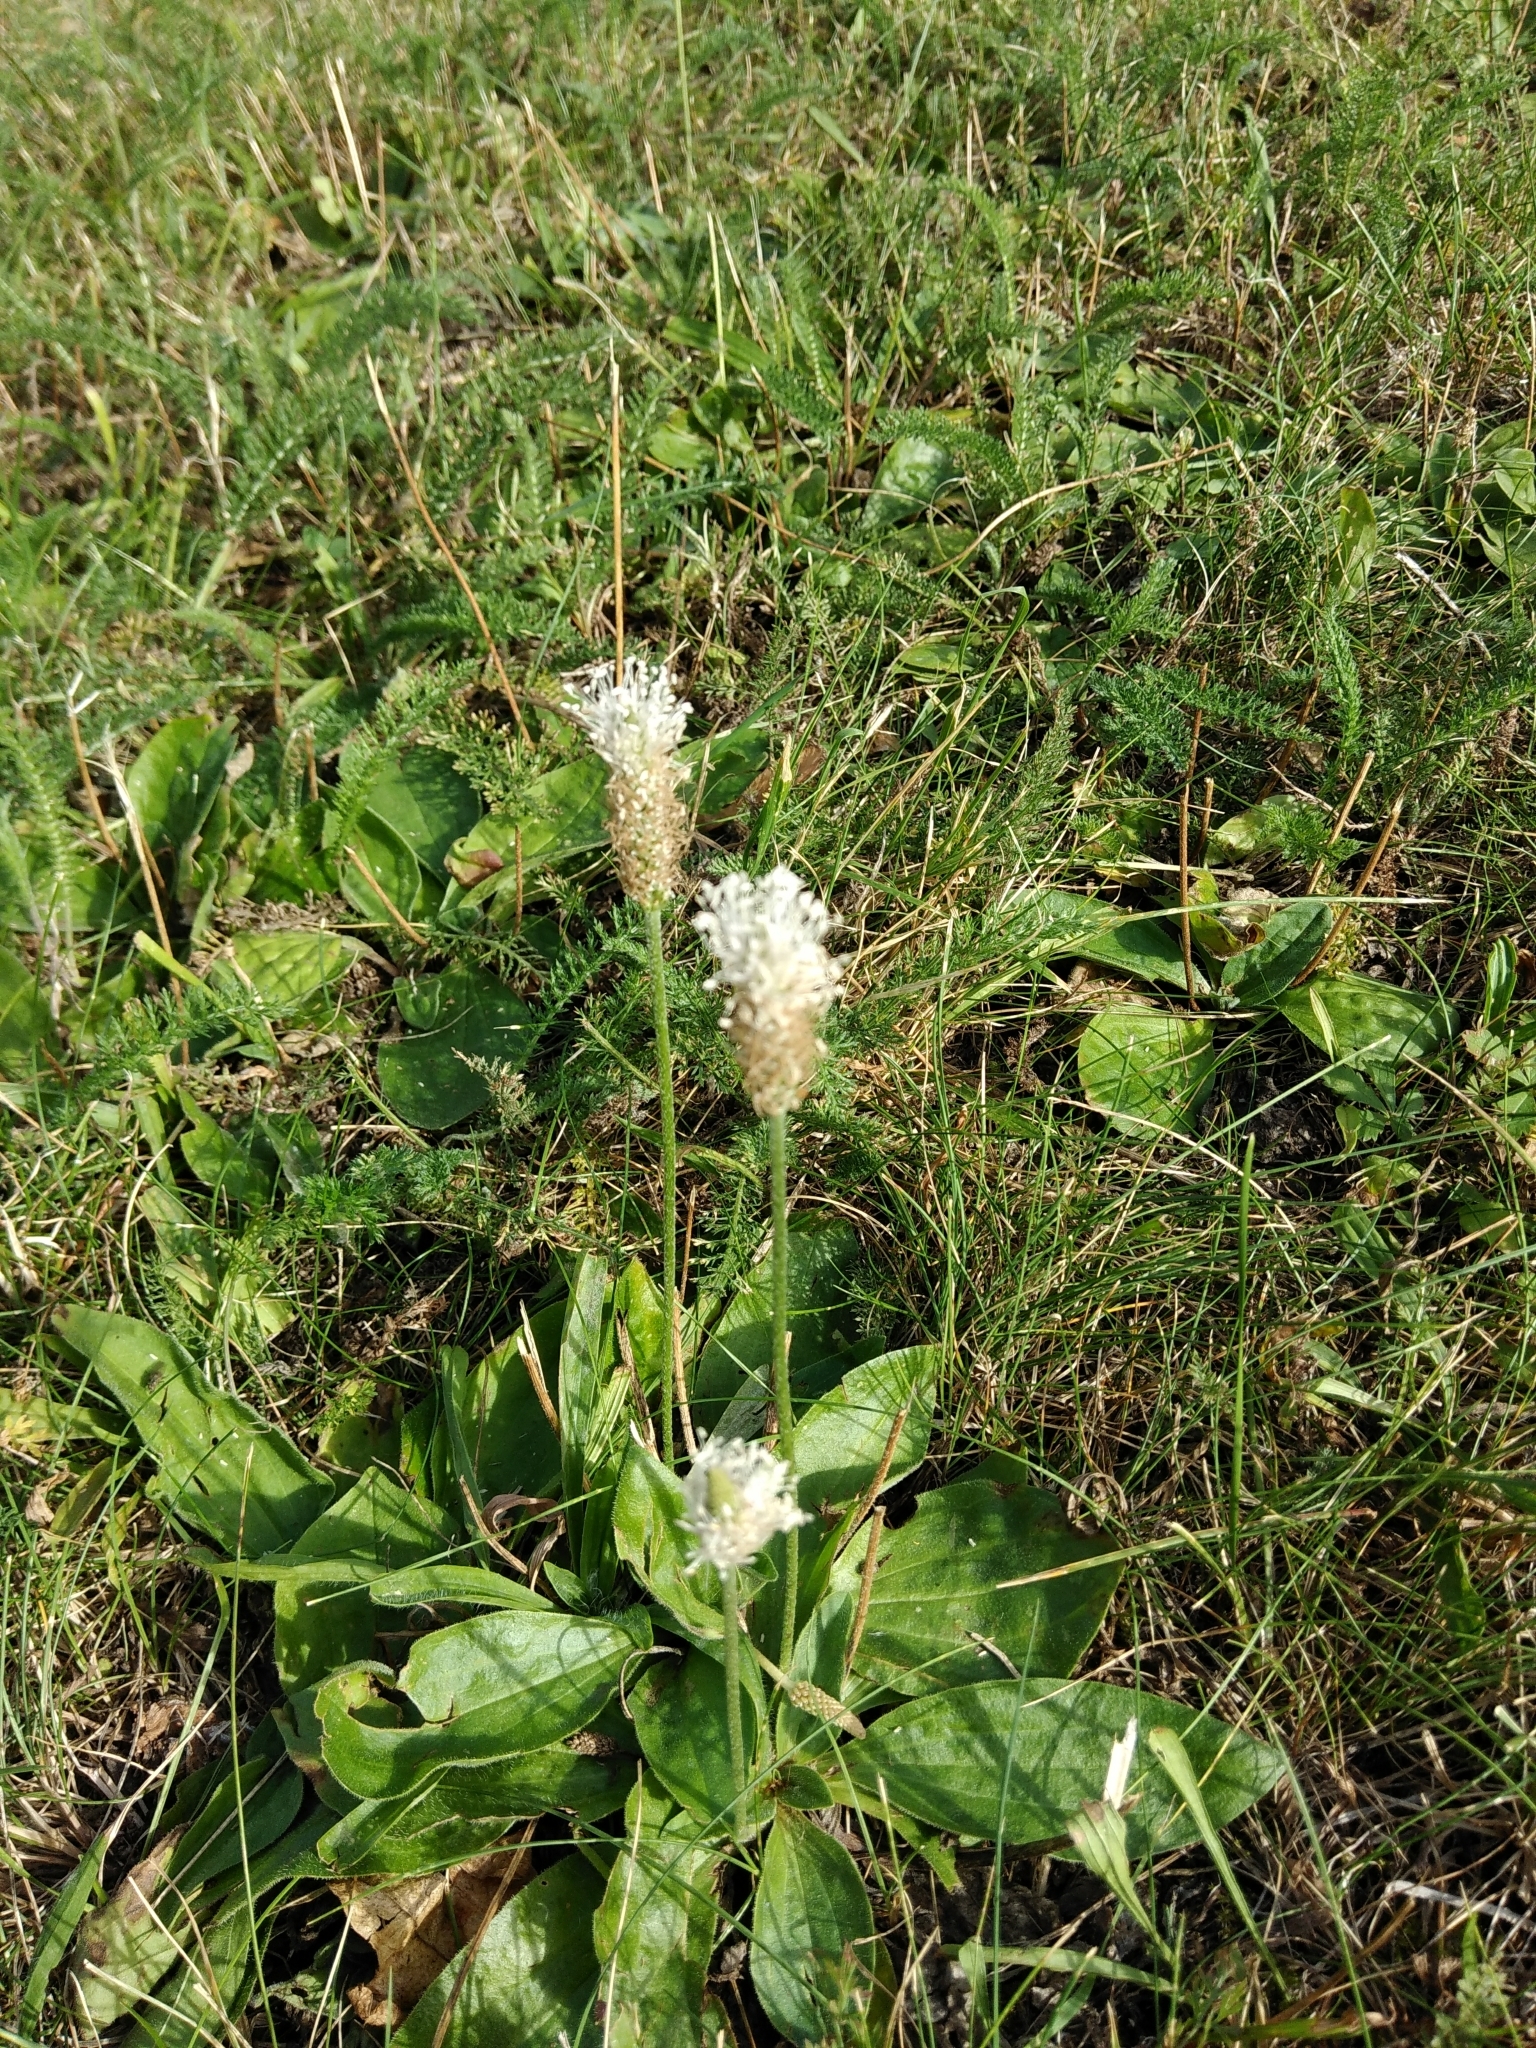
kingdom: Plantae
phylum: Tracheophyta
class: Magnoliopsida
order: Lamiales
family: Plantaginaceae
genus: Plantago
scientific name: Plantago media
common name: Hoary plantain
